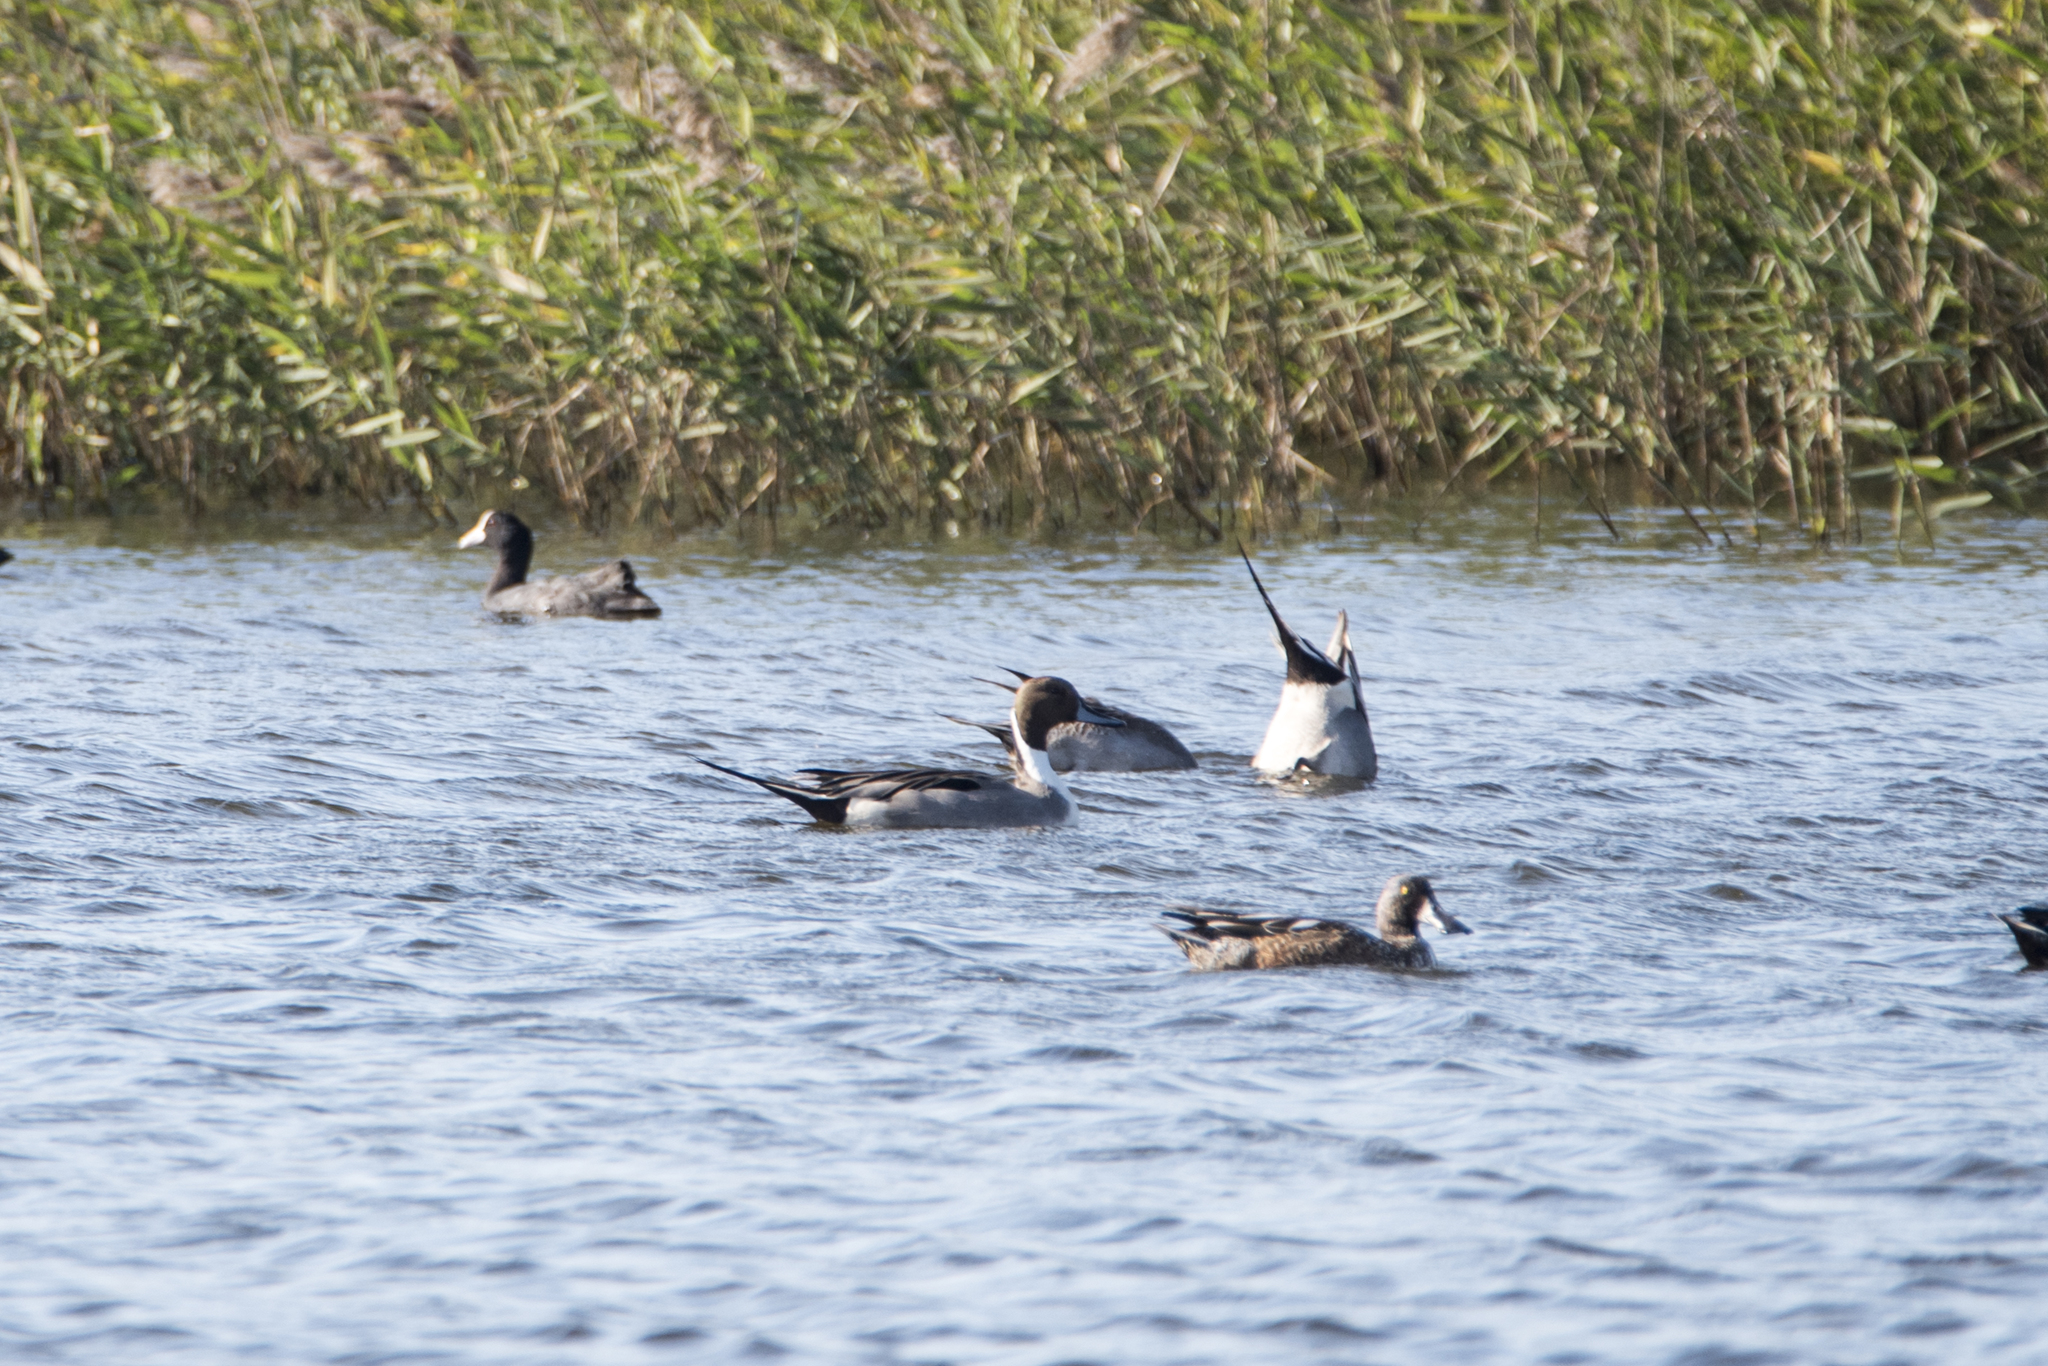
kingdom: Animalia
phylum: Chordata
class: Aves
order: Anseriformes
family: Anatidae
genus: Anas
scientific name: Anas acuta
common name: Northern pintail
